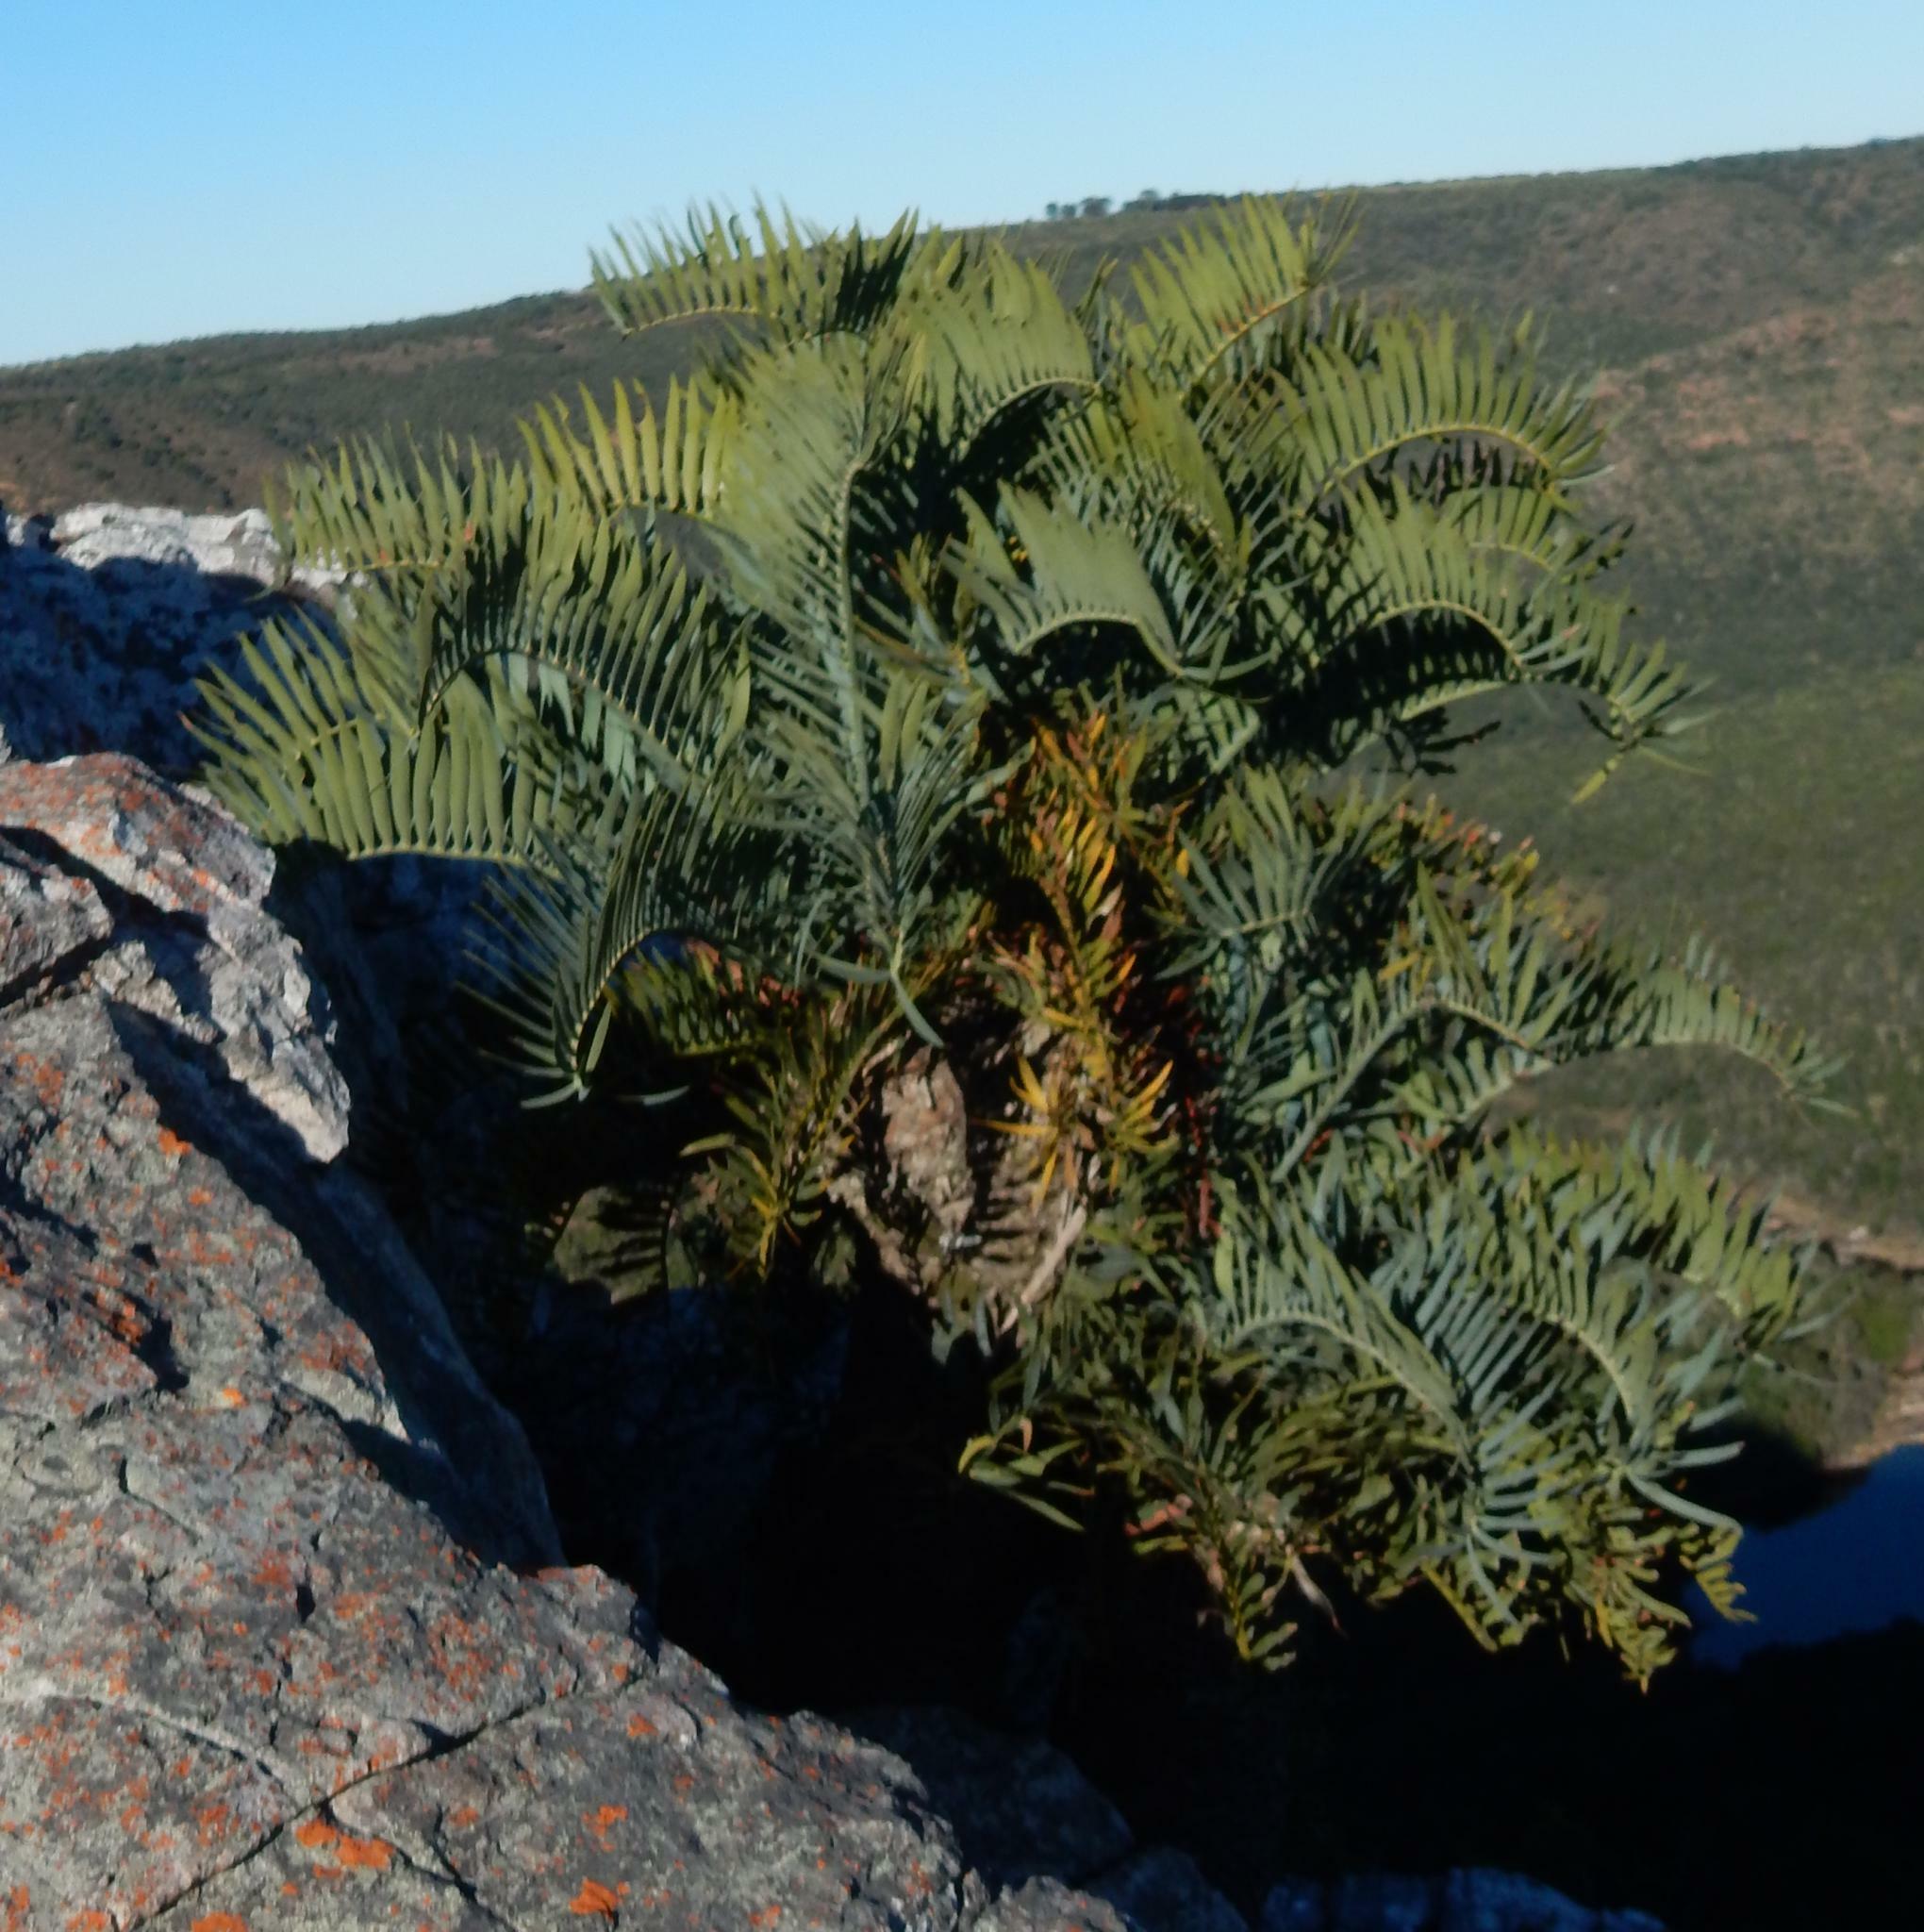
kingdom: Plantae
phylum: Tracheophyta
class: Cycadopsida
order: Cycadales
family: Zamiaceae
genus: Encephalartos
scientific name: Encephalartos trispinosus
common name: Bushman's river cycad
